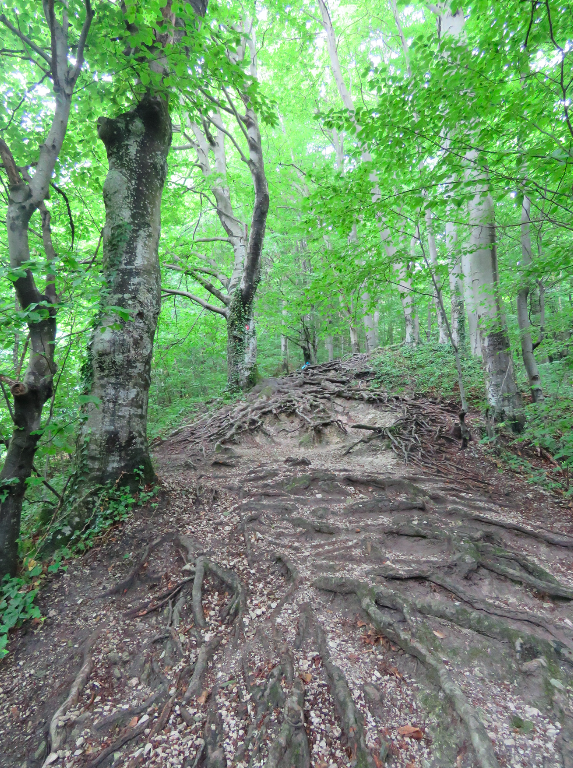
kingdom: Plantae
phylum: Tracheophyta
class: Magnoliopsida
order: Fagales
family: Fagaceae
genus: Fagus
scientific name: Fagus sylvatica
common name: Beech
